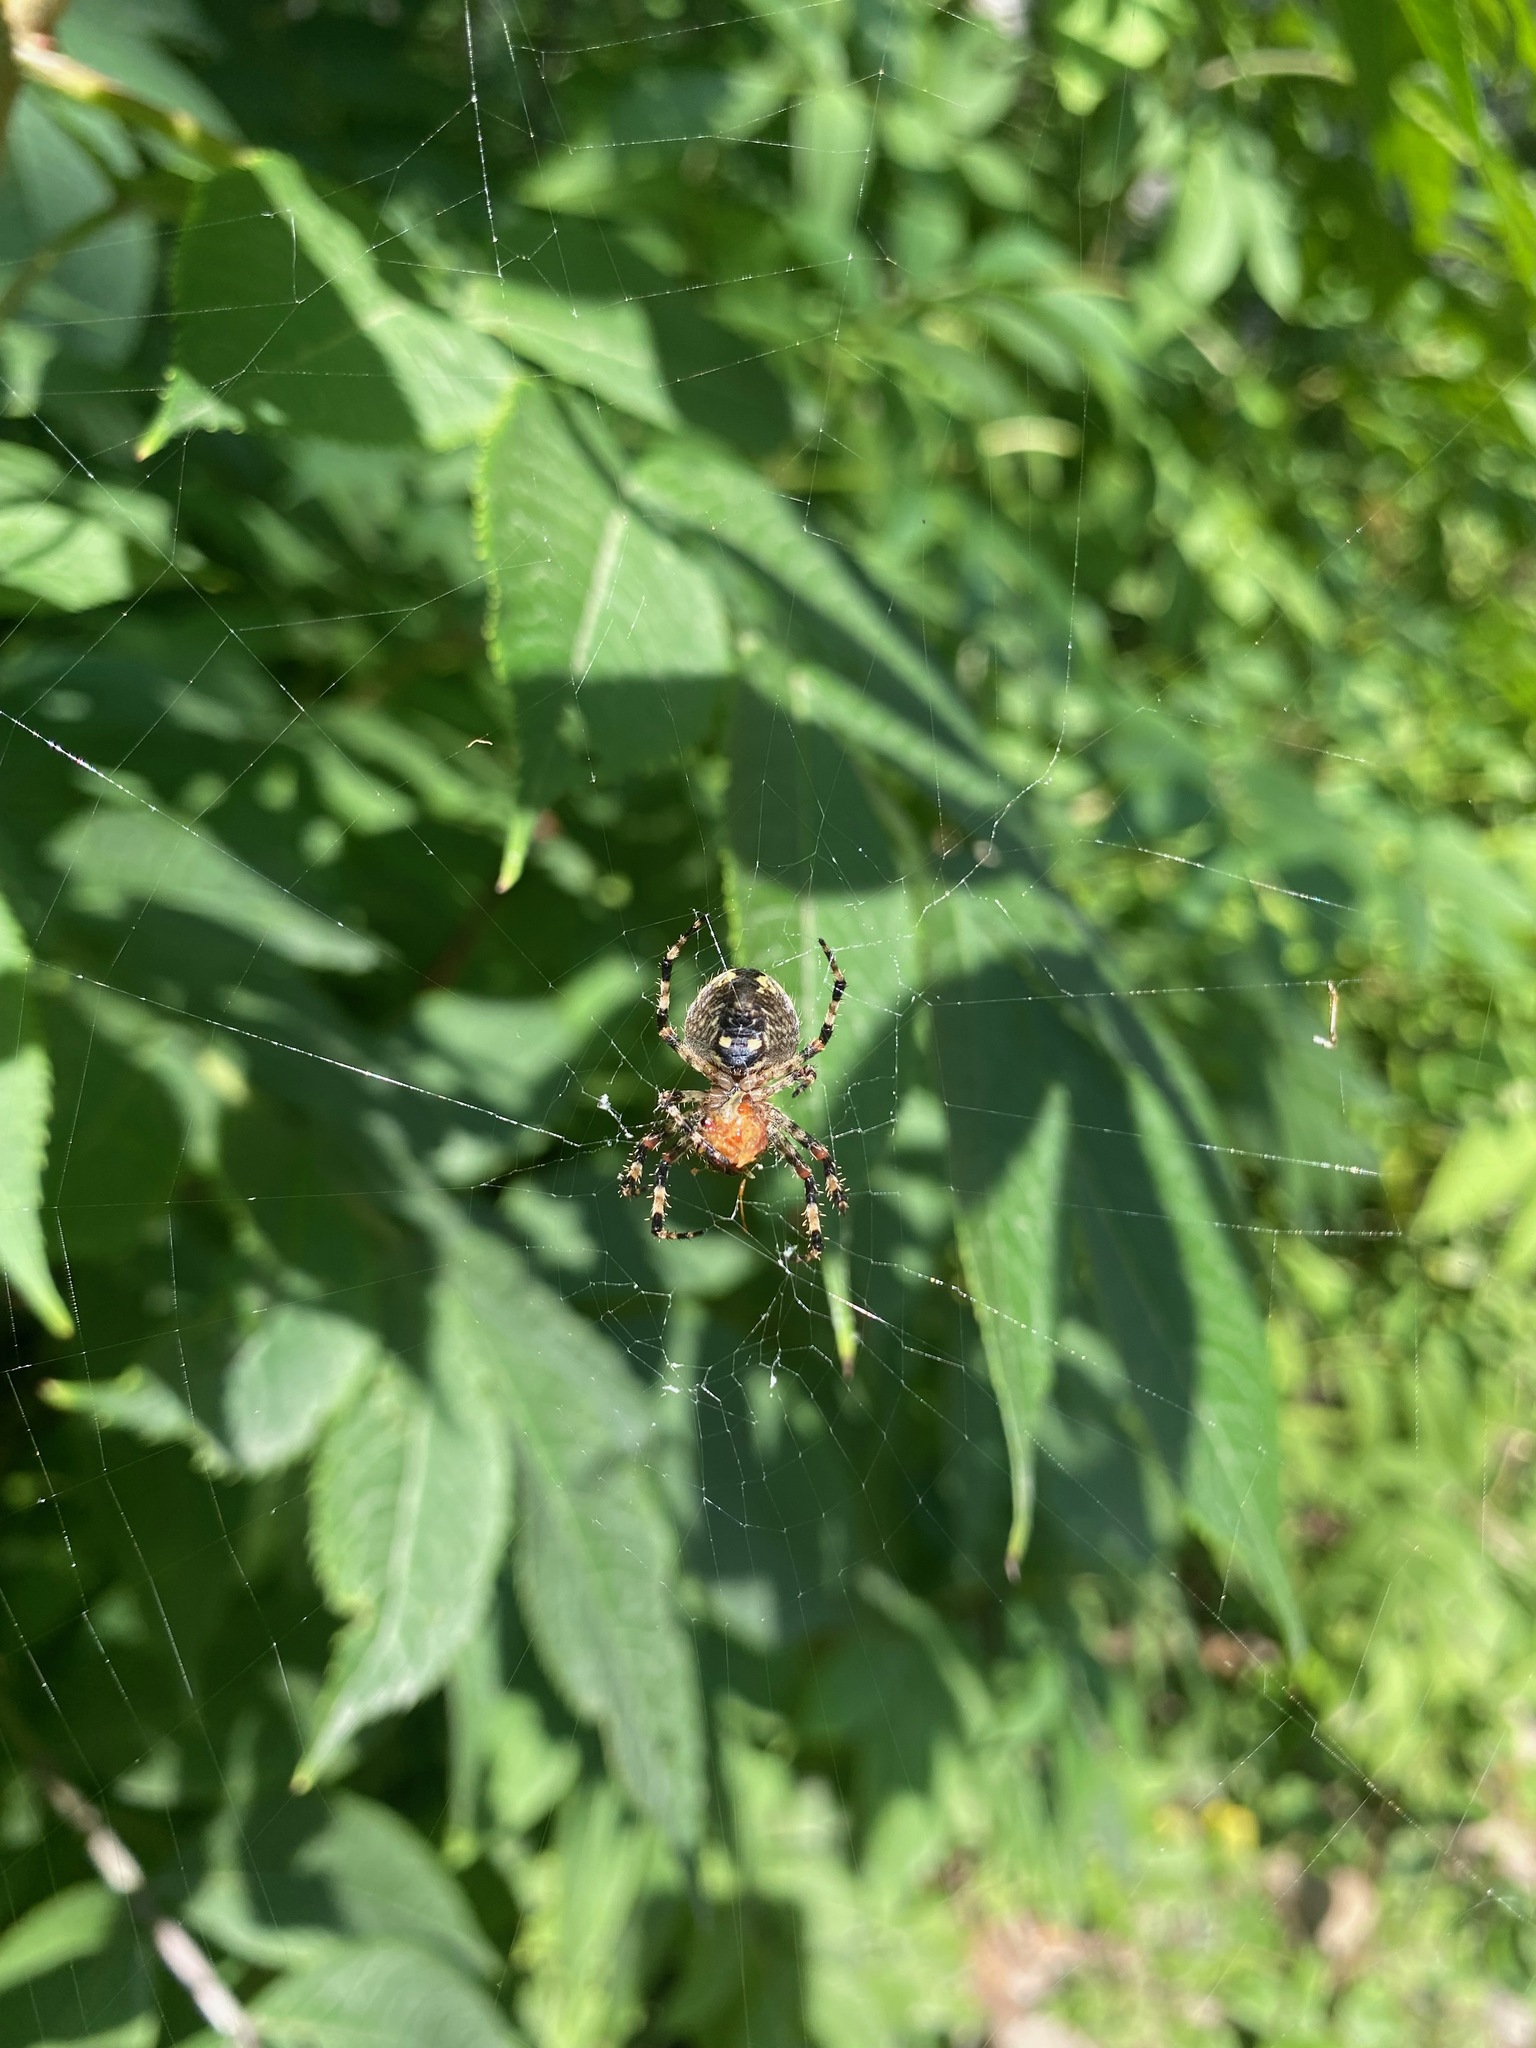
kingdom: Animalia
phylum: Arthropoda
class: Arachnida
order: Araneae
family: Araneidae
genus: Araneus
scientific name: Araneus nordmanni
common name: Nordmann's orbweaver
